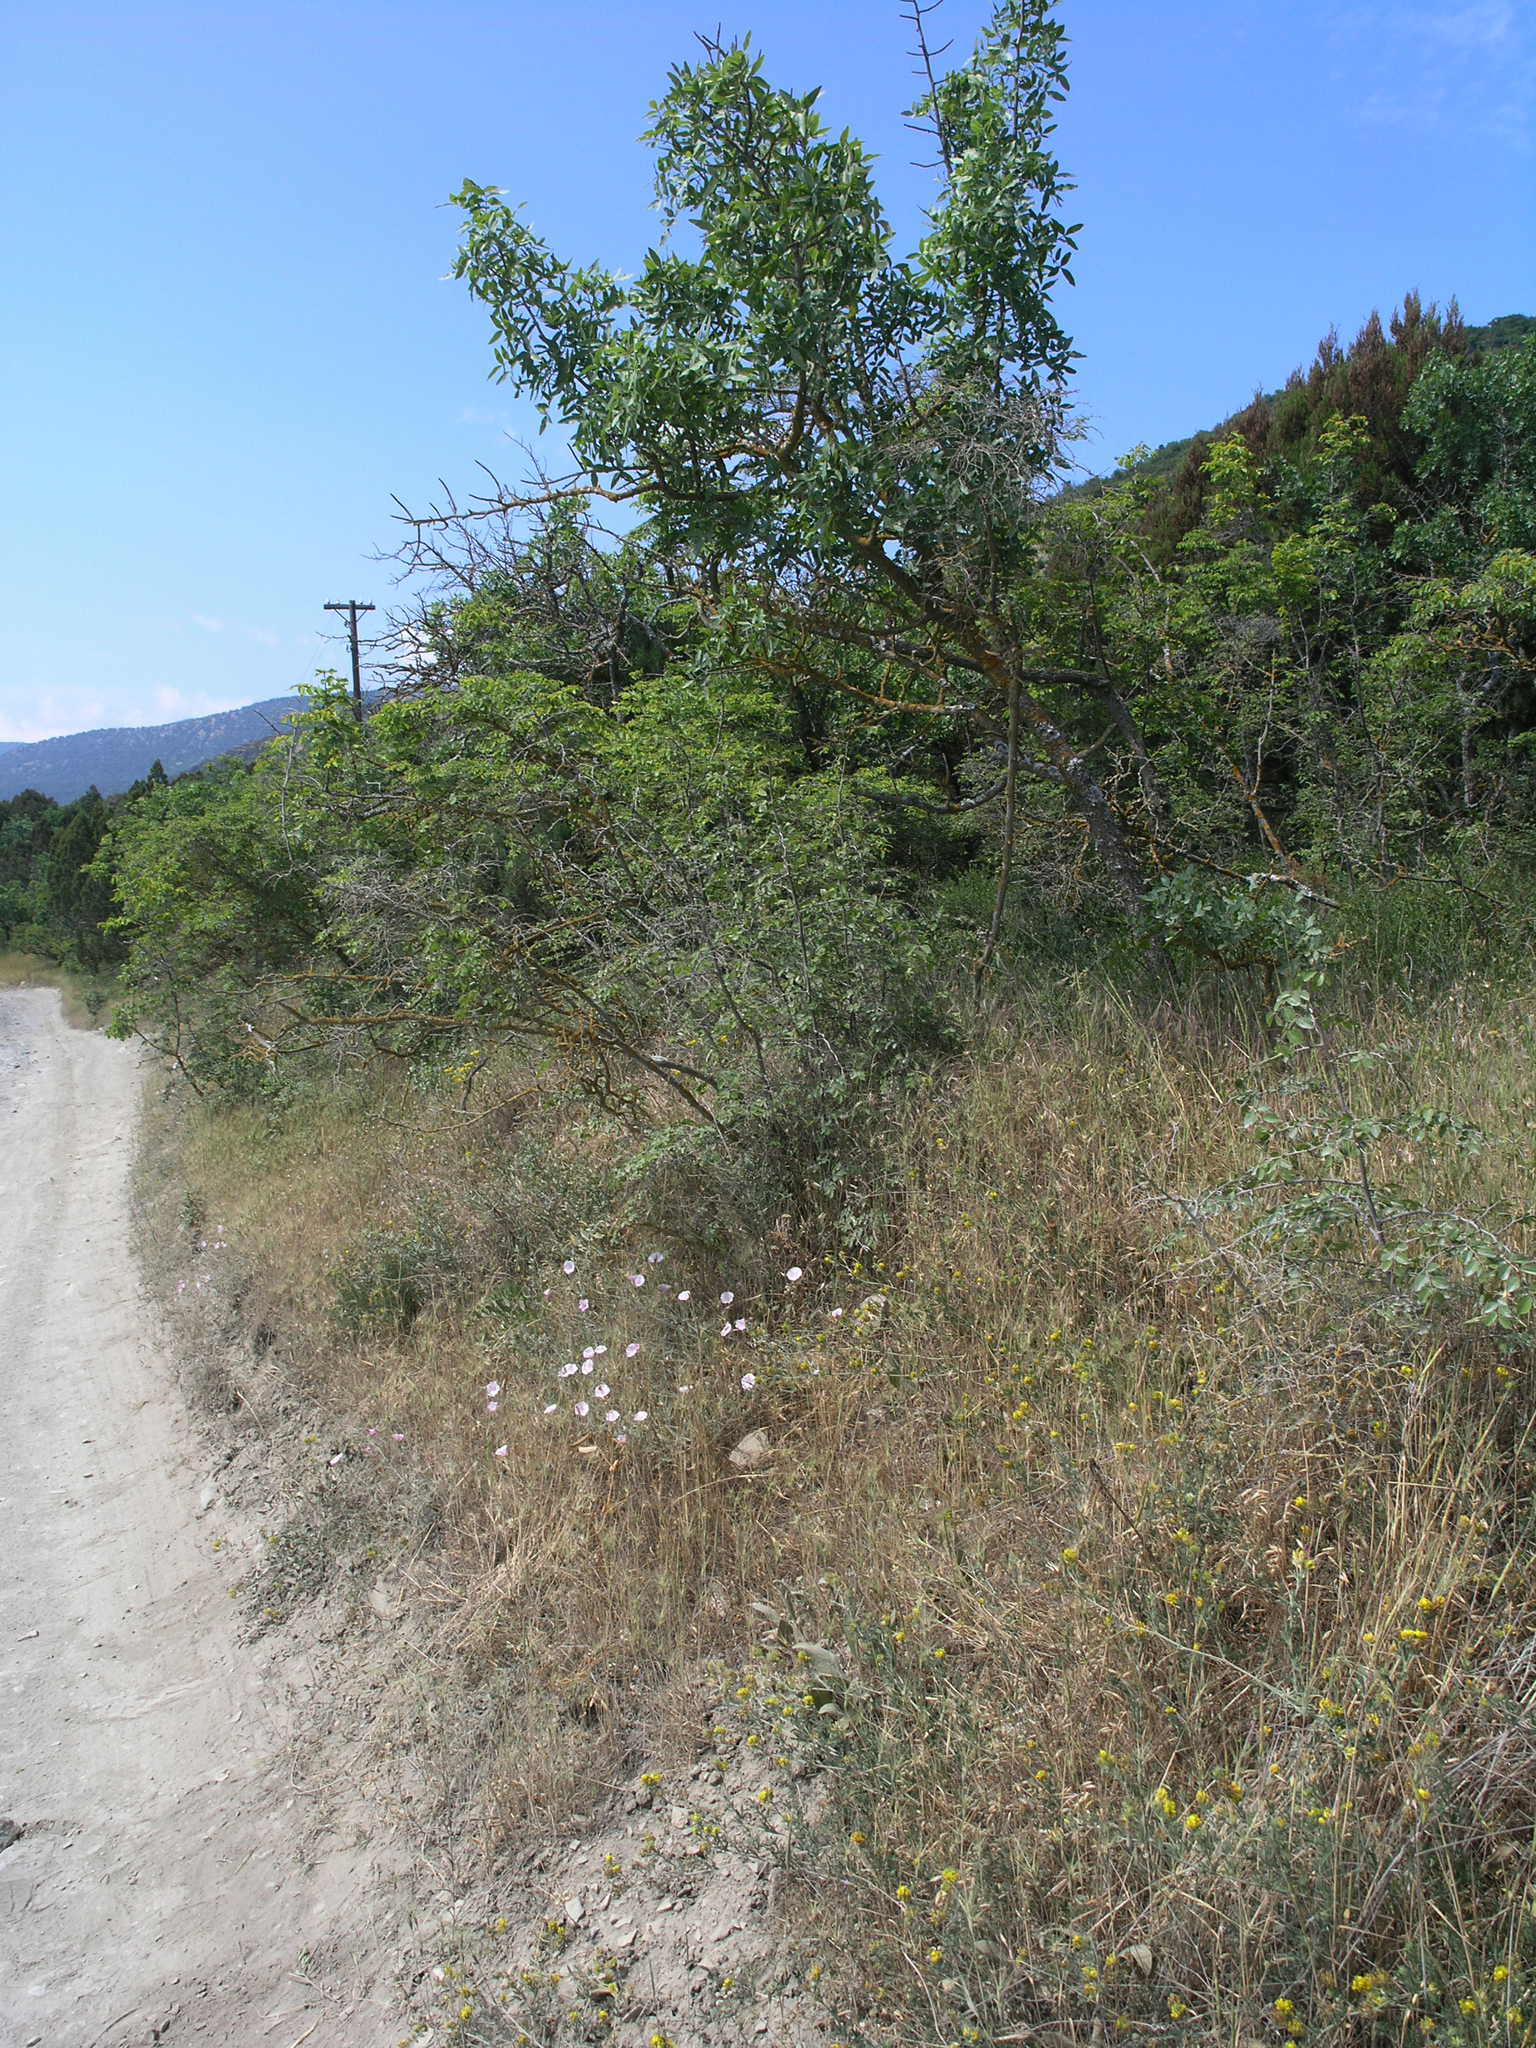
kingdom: Plantae
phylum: Tracheophyta
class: Magnoliopsida
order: Sapindales
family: Anacardiaceae
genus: Pistacia
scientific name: Pistacia atlantica
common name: Mt. atlas mastic tree
